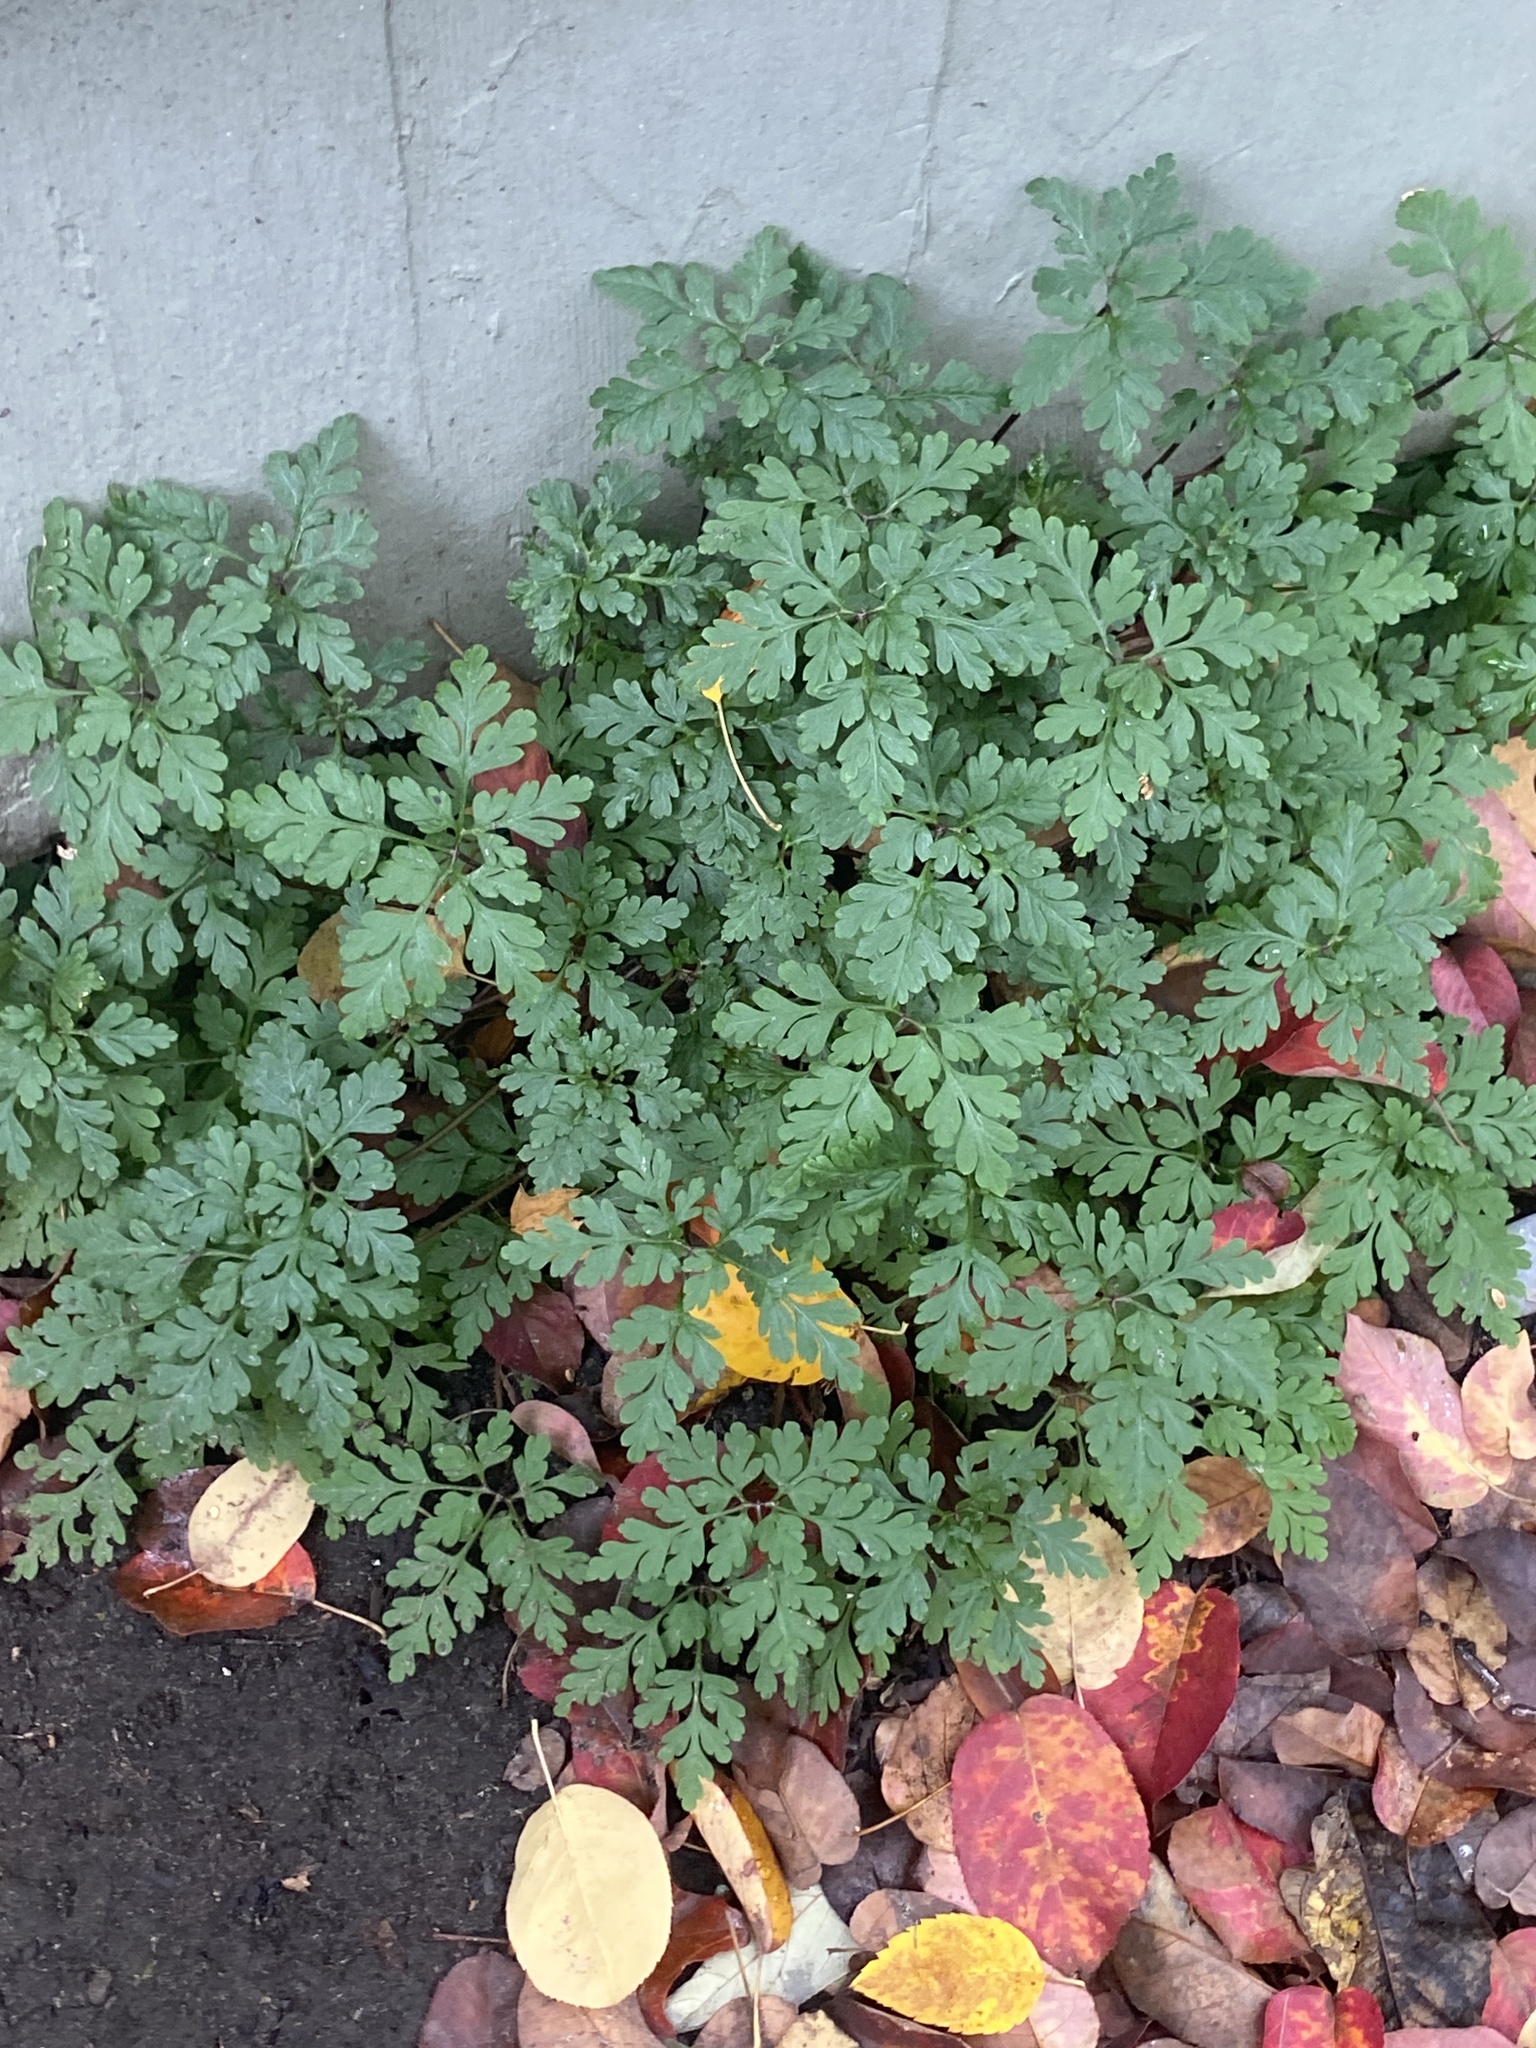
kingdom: Plantae
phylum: Tracheophyta
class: Magnoliopsida
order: Geraniales
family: Geraniaceae
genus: Geranium
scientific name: Geranium robertianum
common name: Herb-robert
